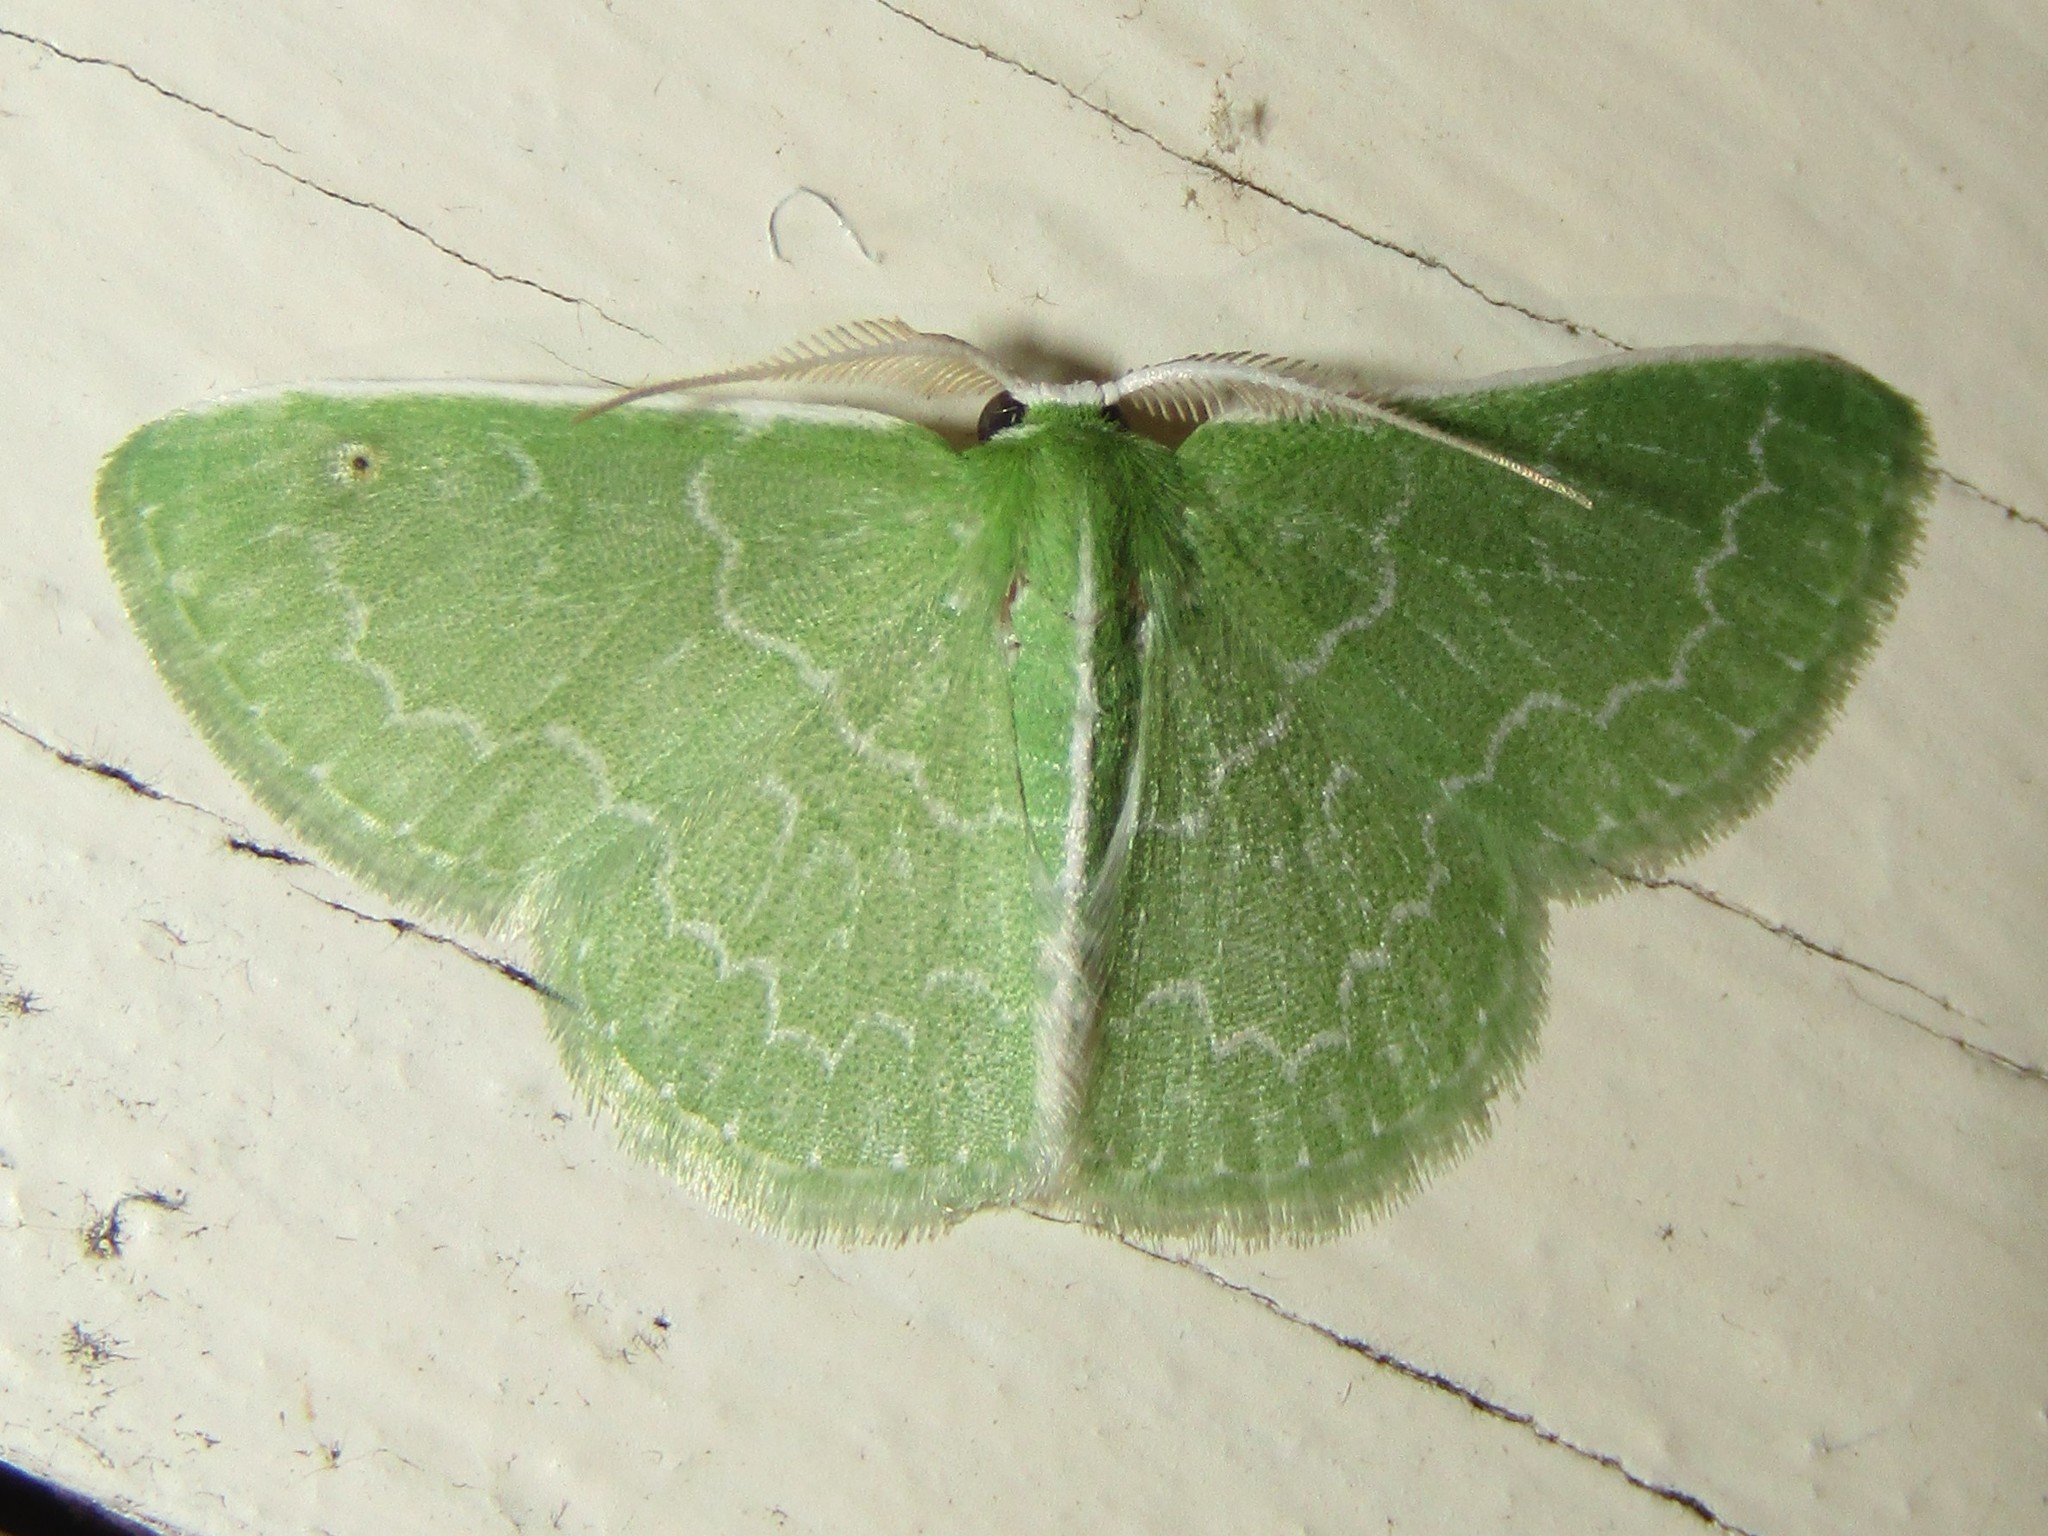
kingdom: Animalia
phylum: Arthropoda
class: Insecta
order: Lepidoptera
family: Geometridae
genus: Synchlora
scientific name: Synchlora frondaria
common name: Southern emerald
